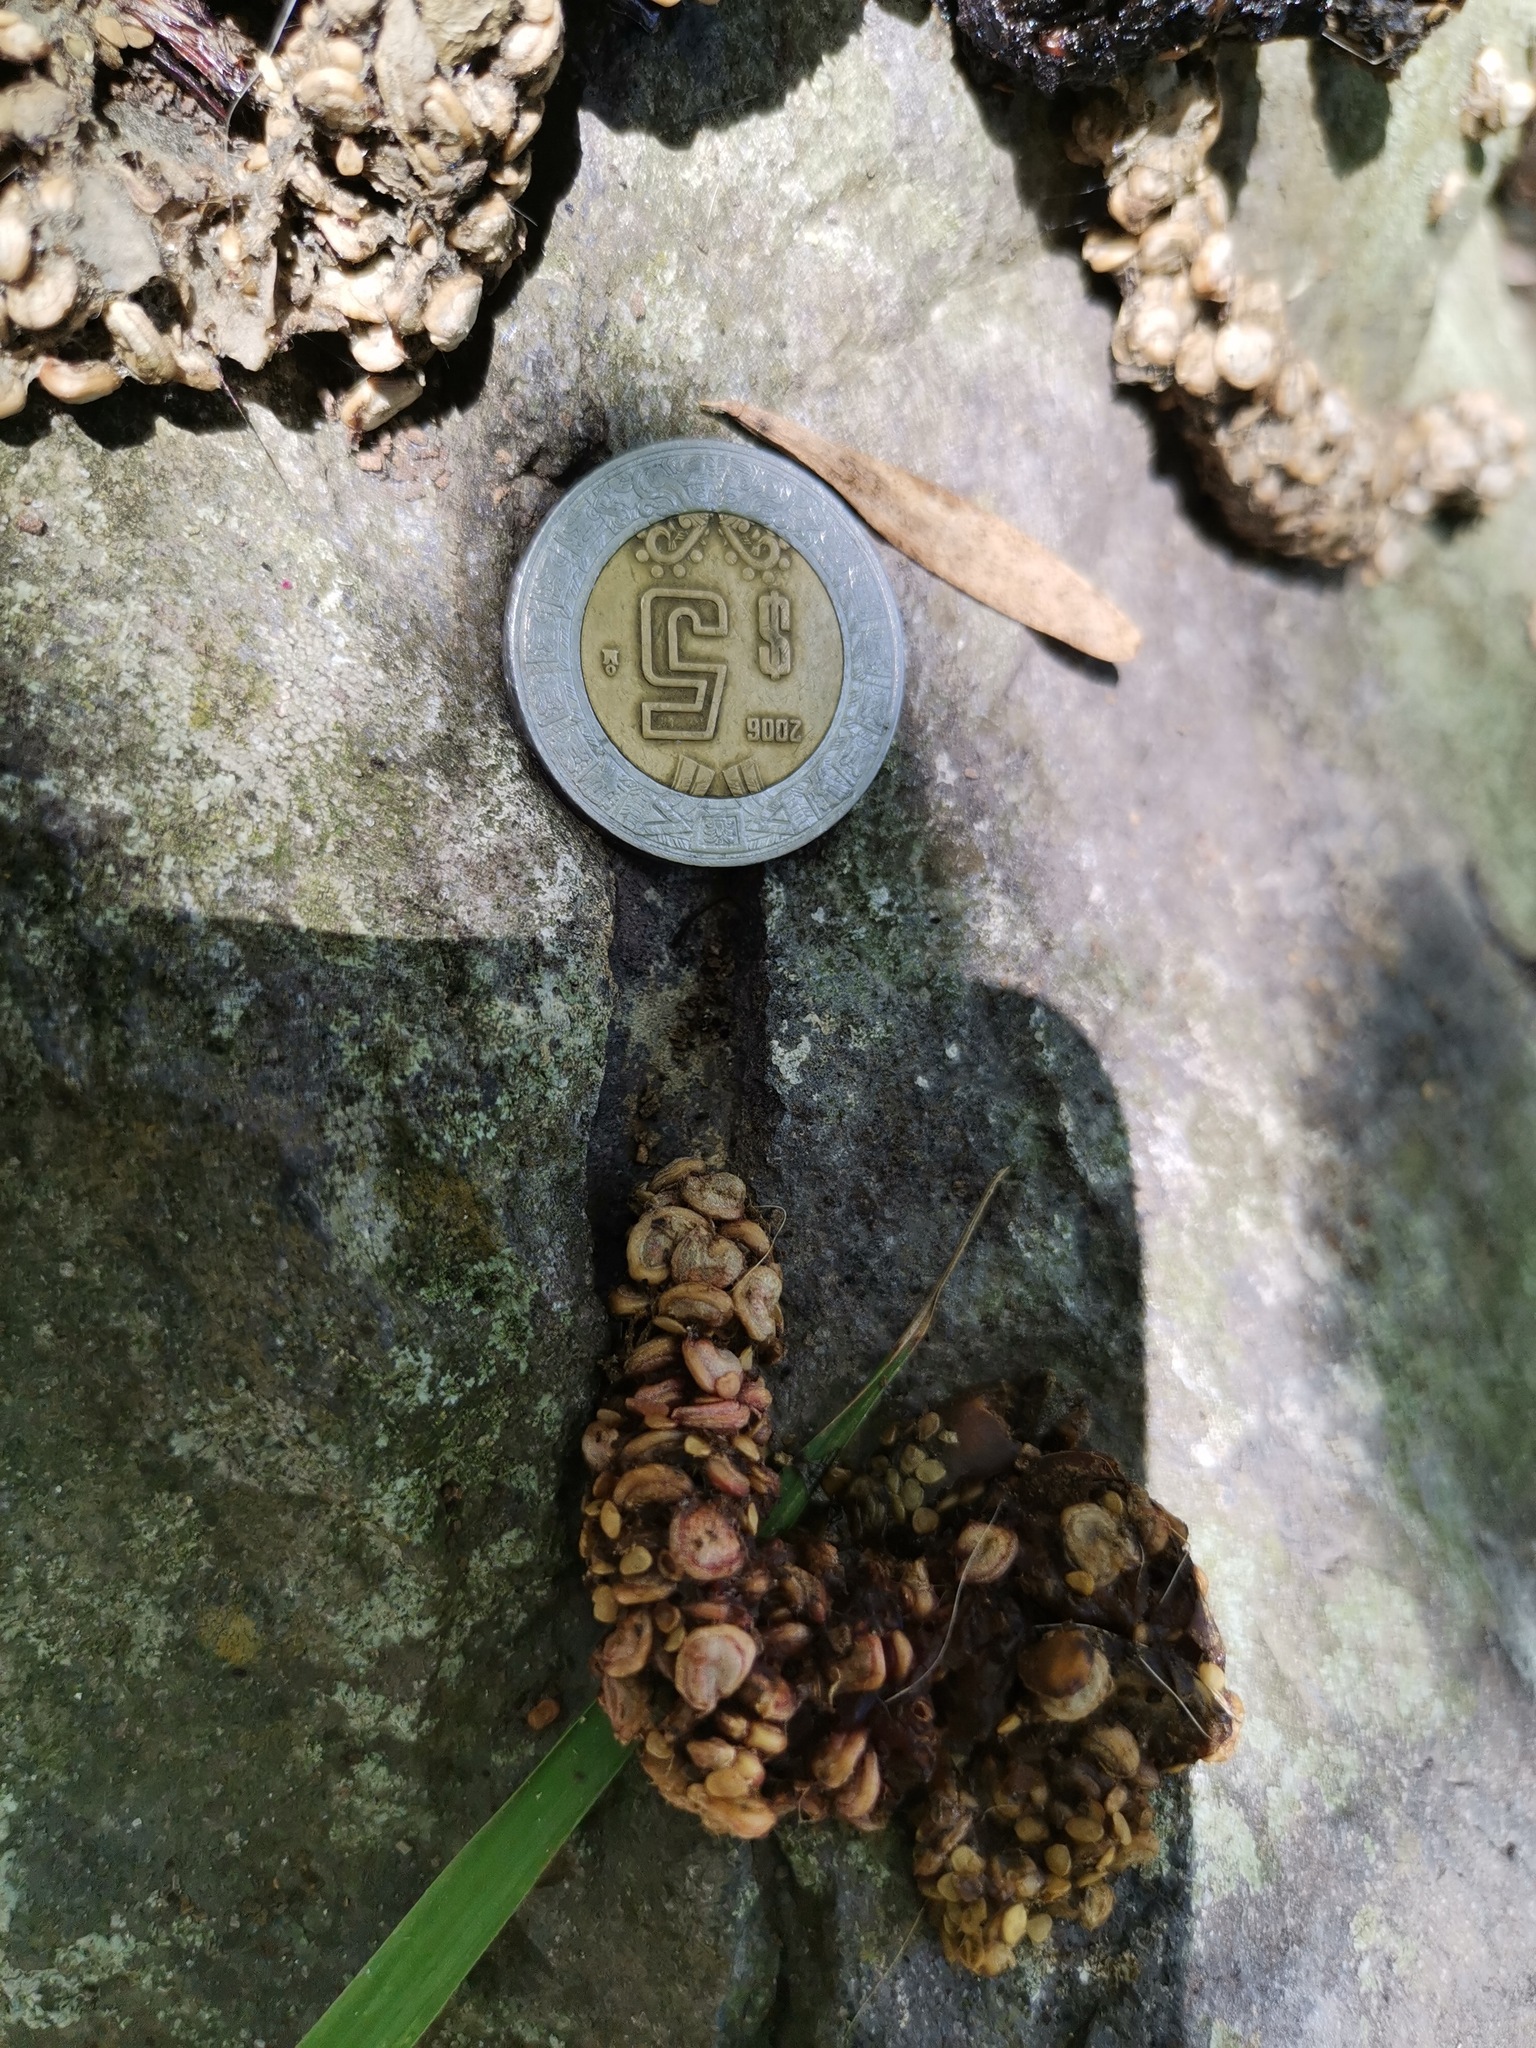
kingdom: Animalia
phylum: Chordata
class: Mammalia
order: Carnivora
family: Procyonidae
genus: Bassariscus
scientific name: Bassariscus astutus
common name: Ringtail
